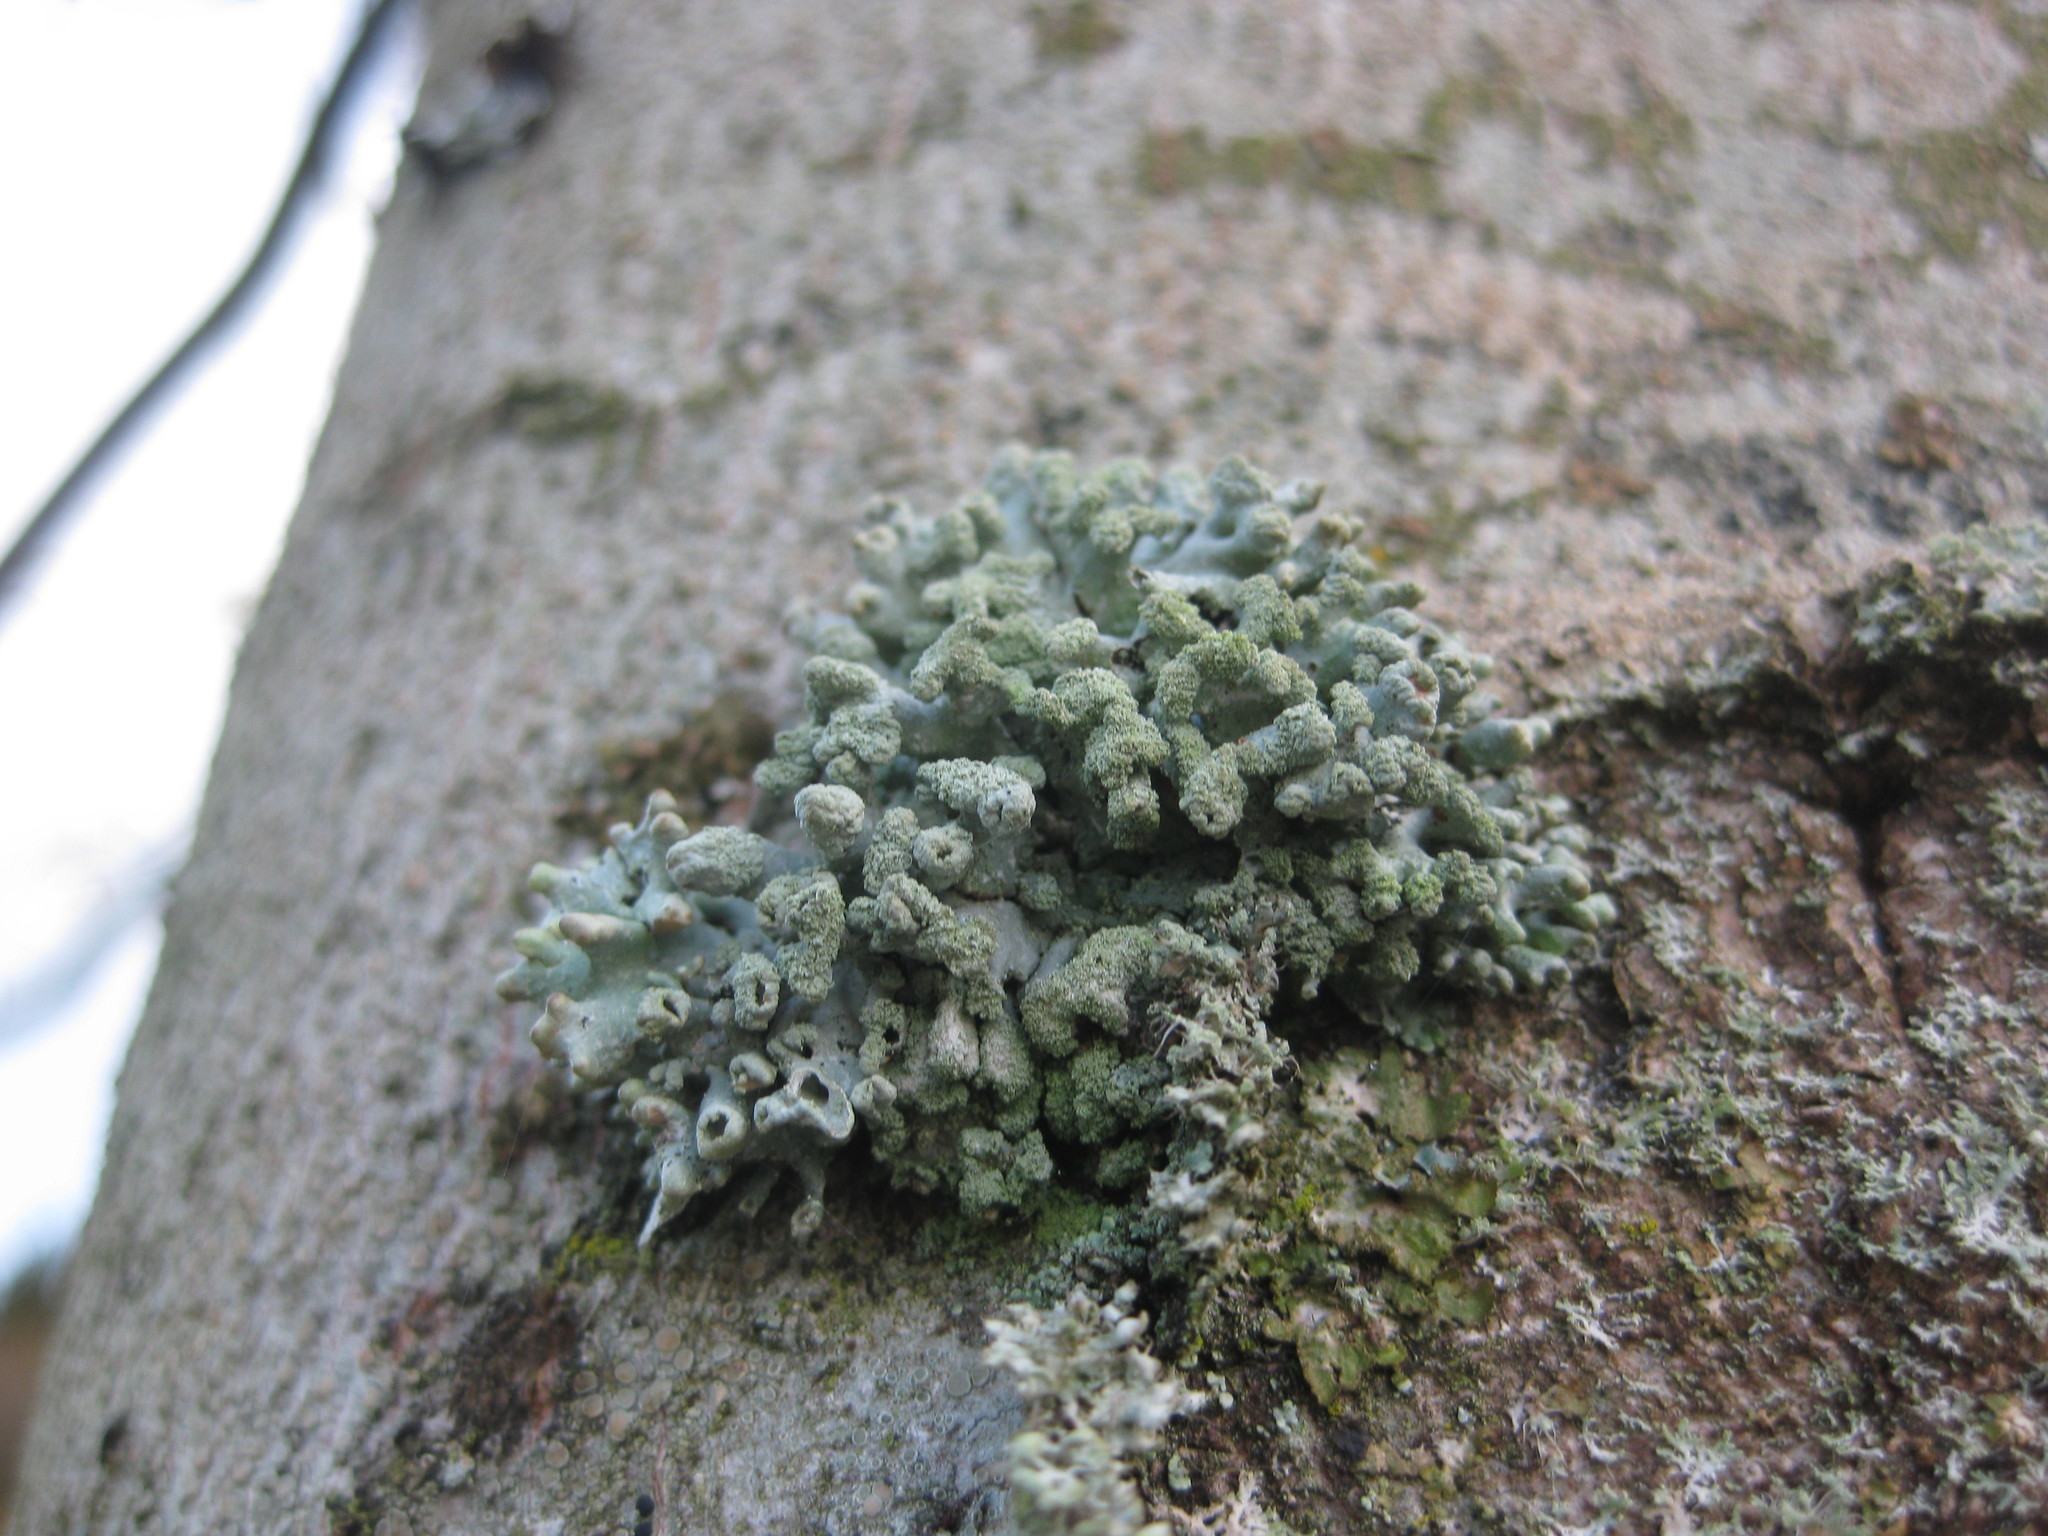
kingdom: Fungi
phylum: Ascomycota
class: Lecanoromycetes
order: Lecanorales
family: Parmeliaceae
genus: Hypogymnia
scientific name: Hypogymnia tubulosa
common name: Powder-headed tube lichen
